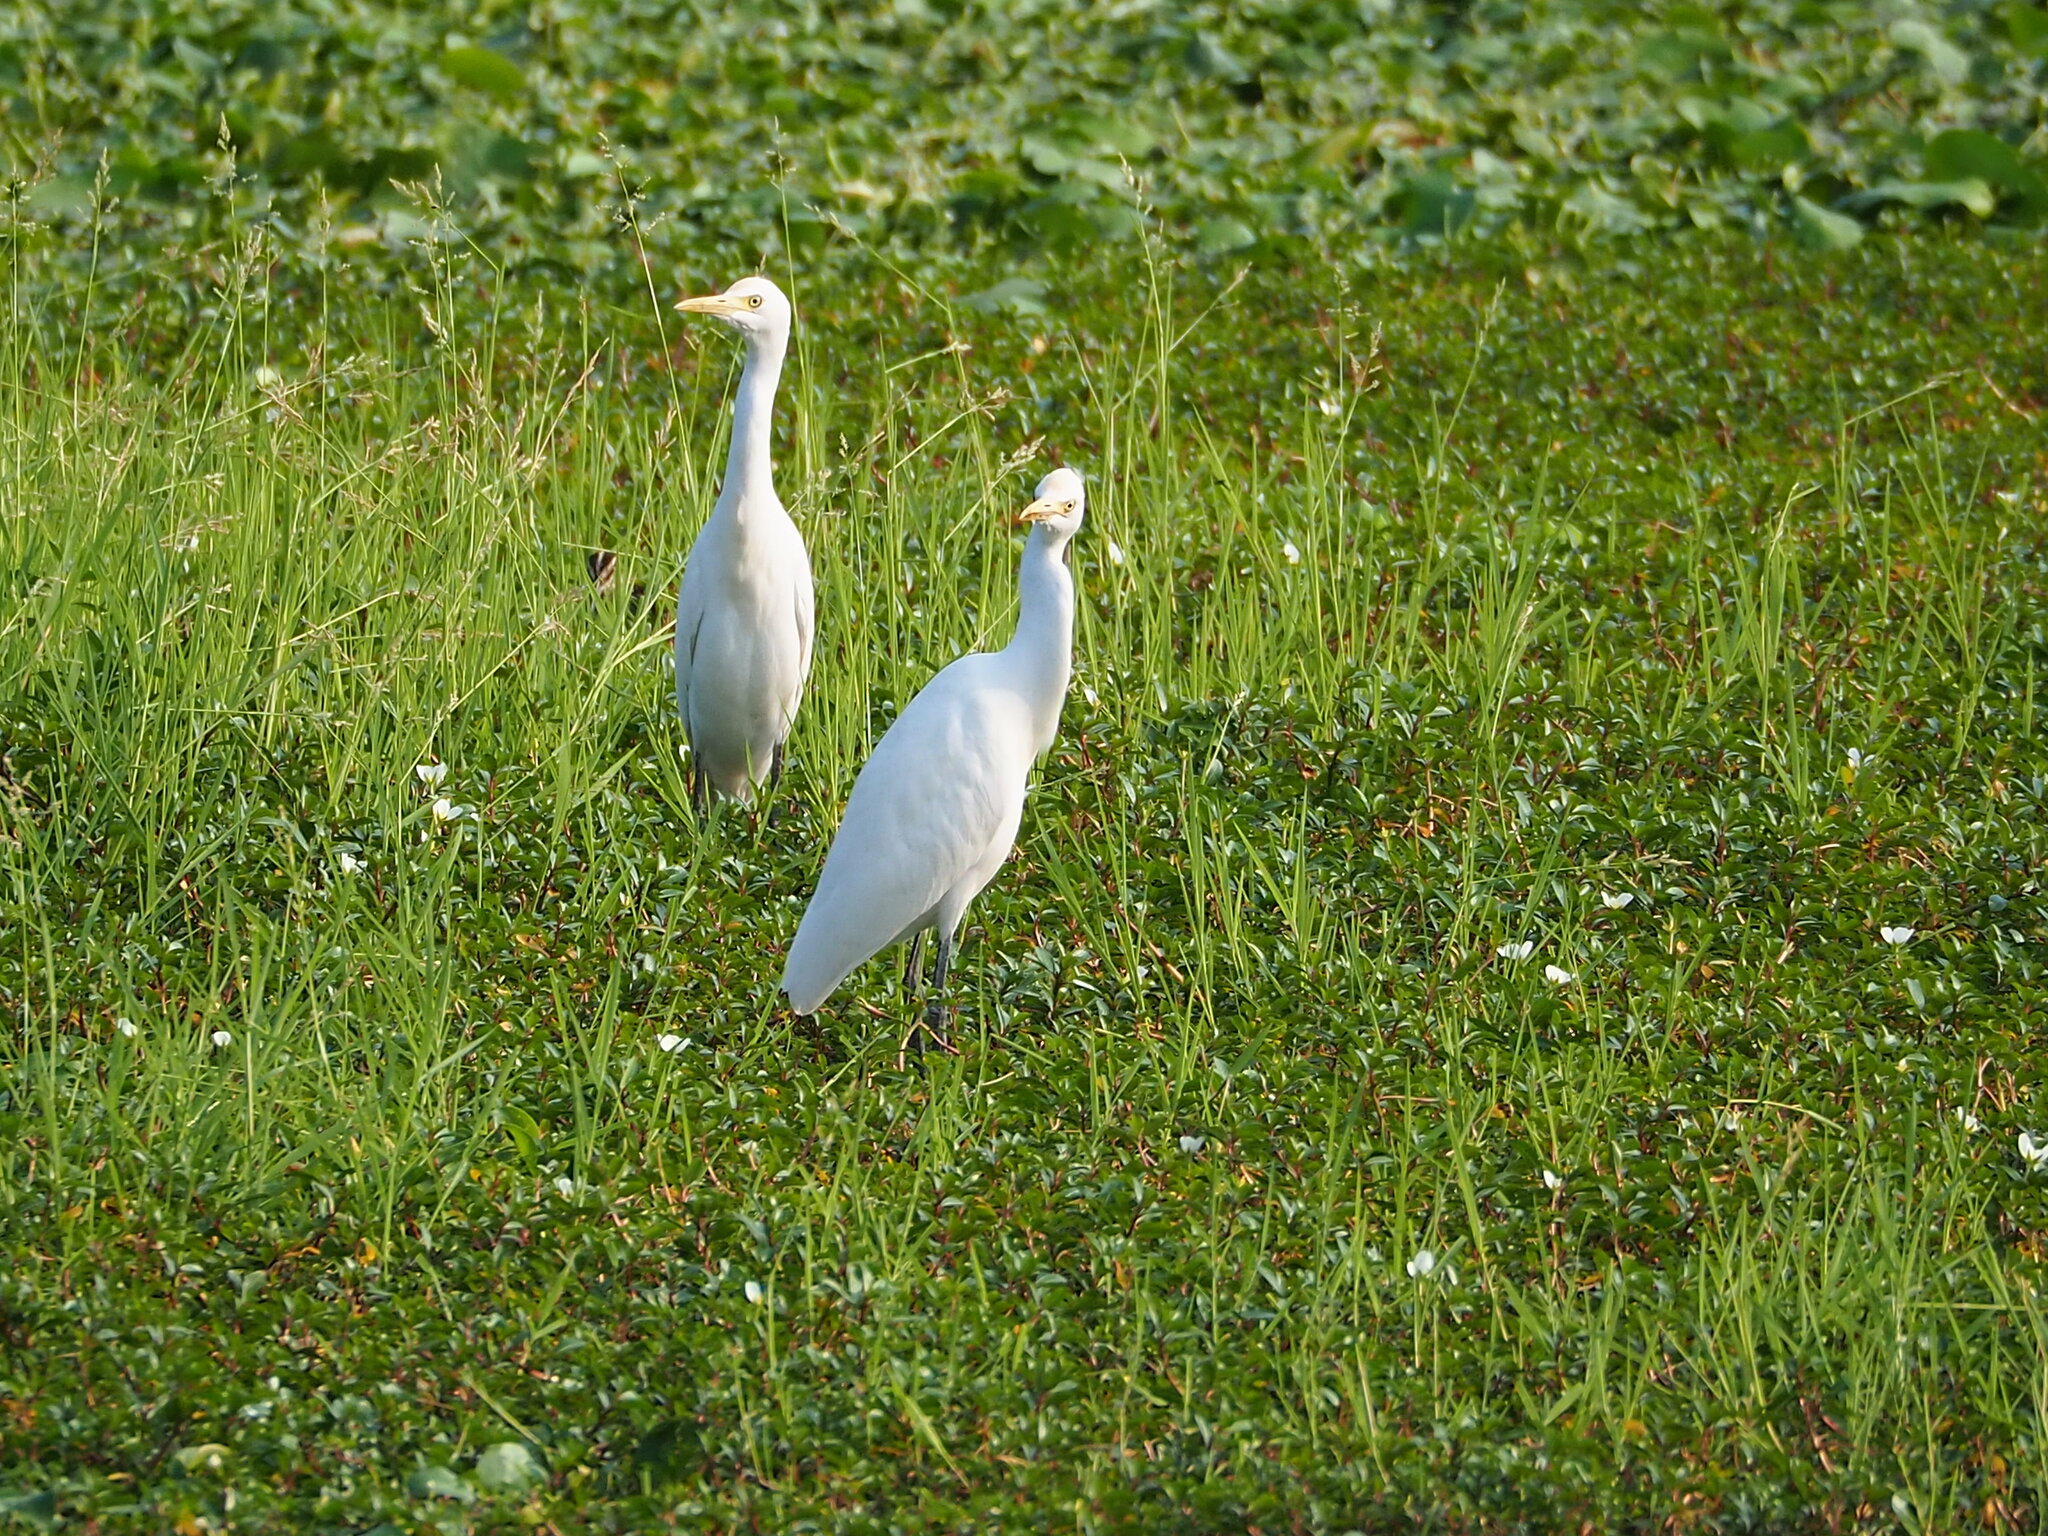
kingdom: Animalia
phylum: Chordata
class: Aves
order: Pelecaniformes
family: Ardeidae
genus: Bubulcus
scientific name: Bubulcus coromandus
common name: Eastern cattle egret
